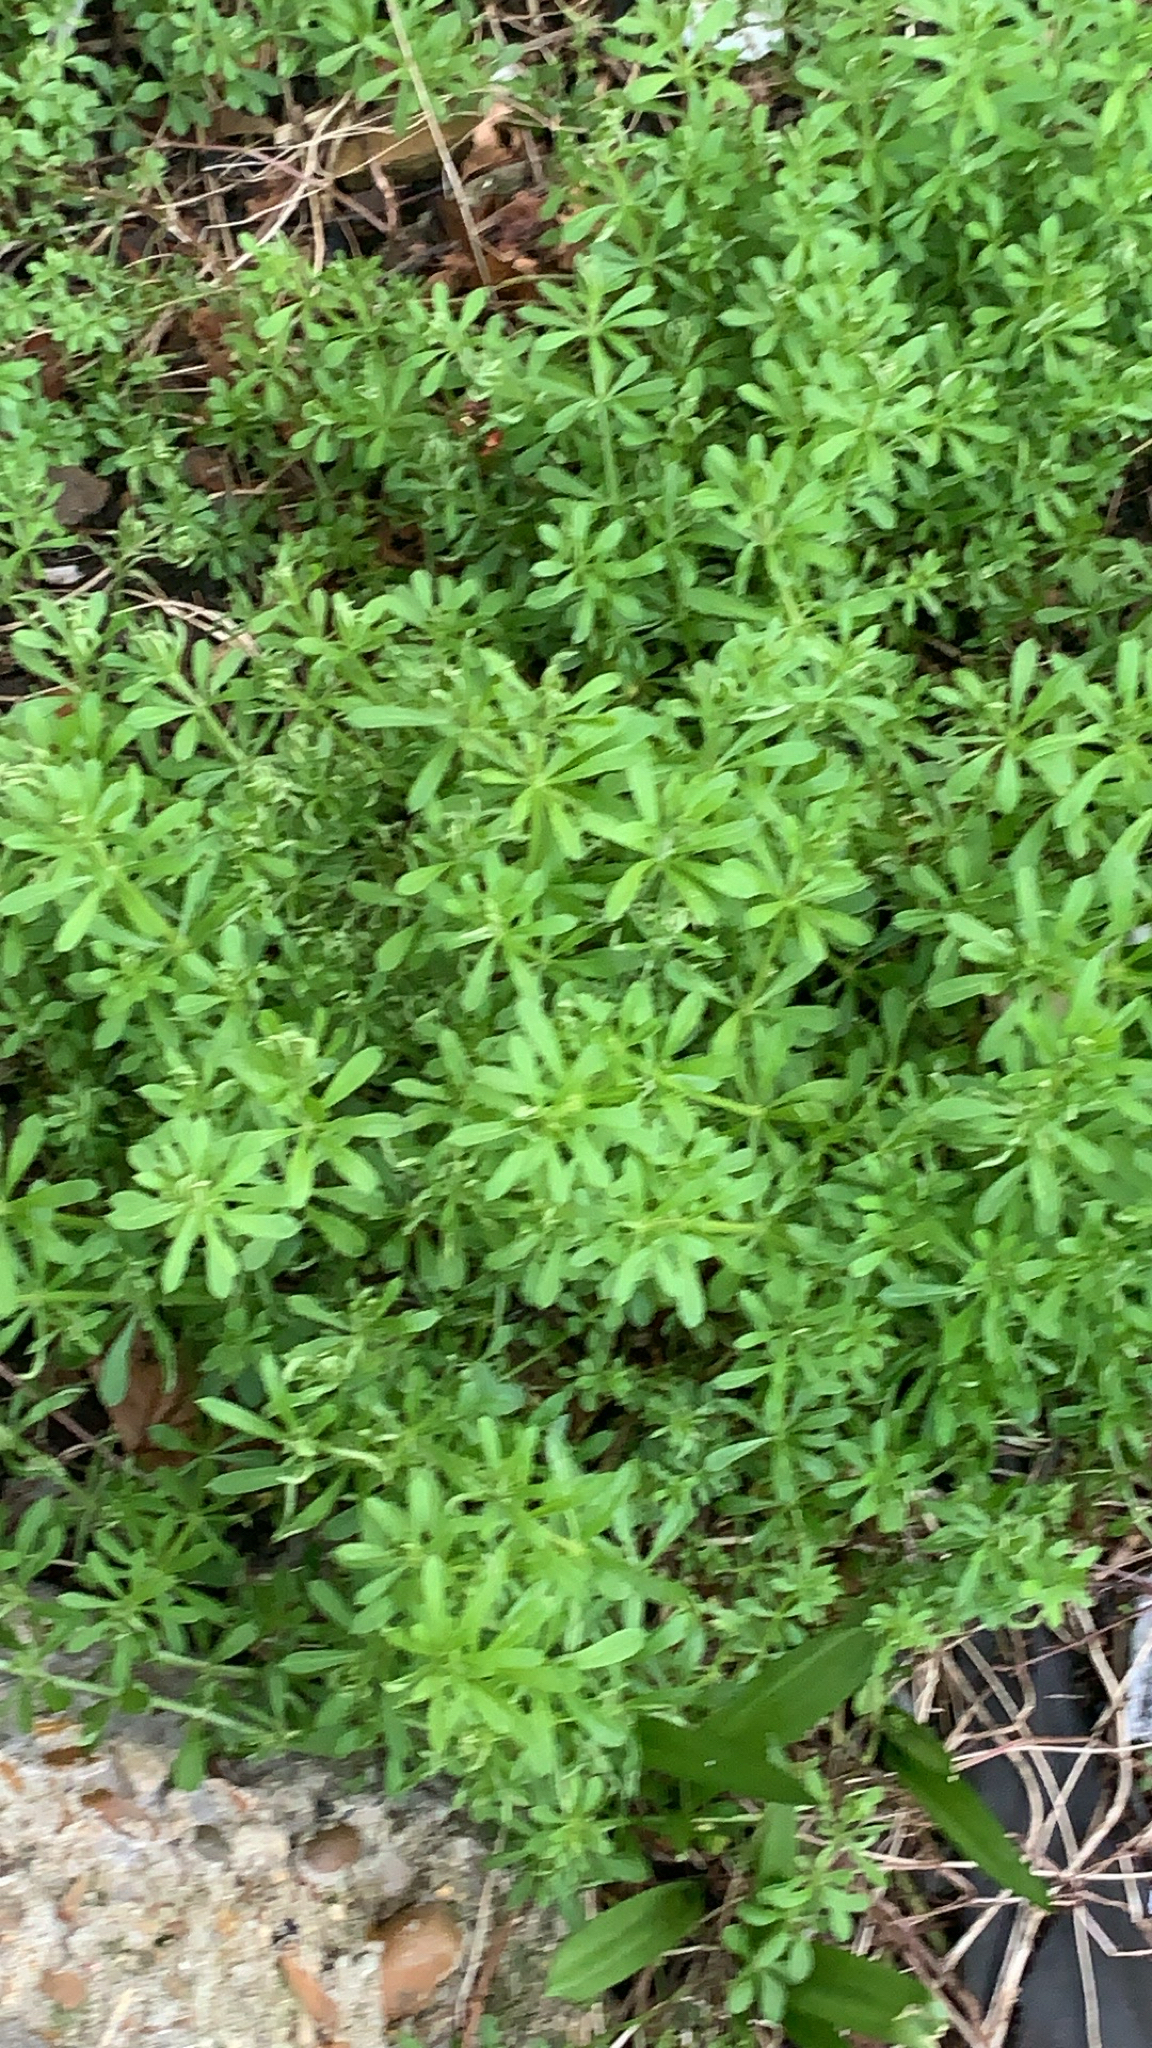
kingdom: Plantae
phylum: Tracheophyta
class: Magnoliopsida
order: Gentianales
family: Rubiaceae
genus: Galium
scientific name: Galium aparine
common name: Cleavers
